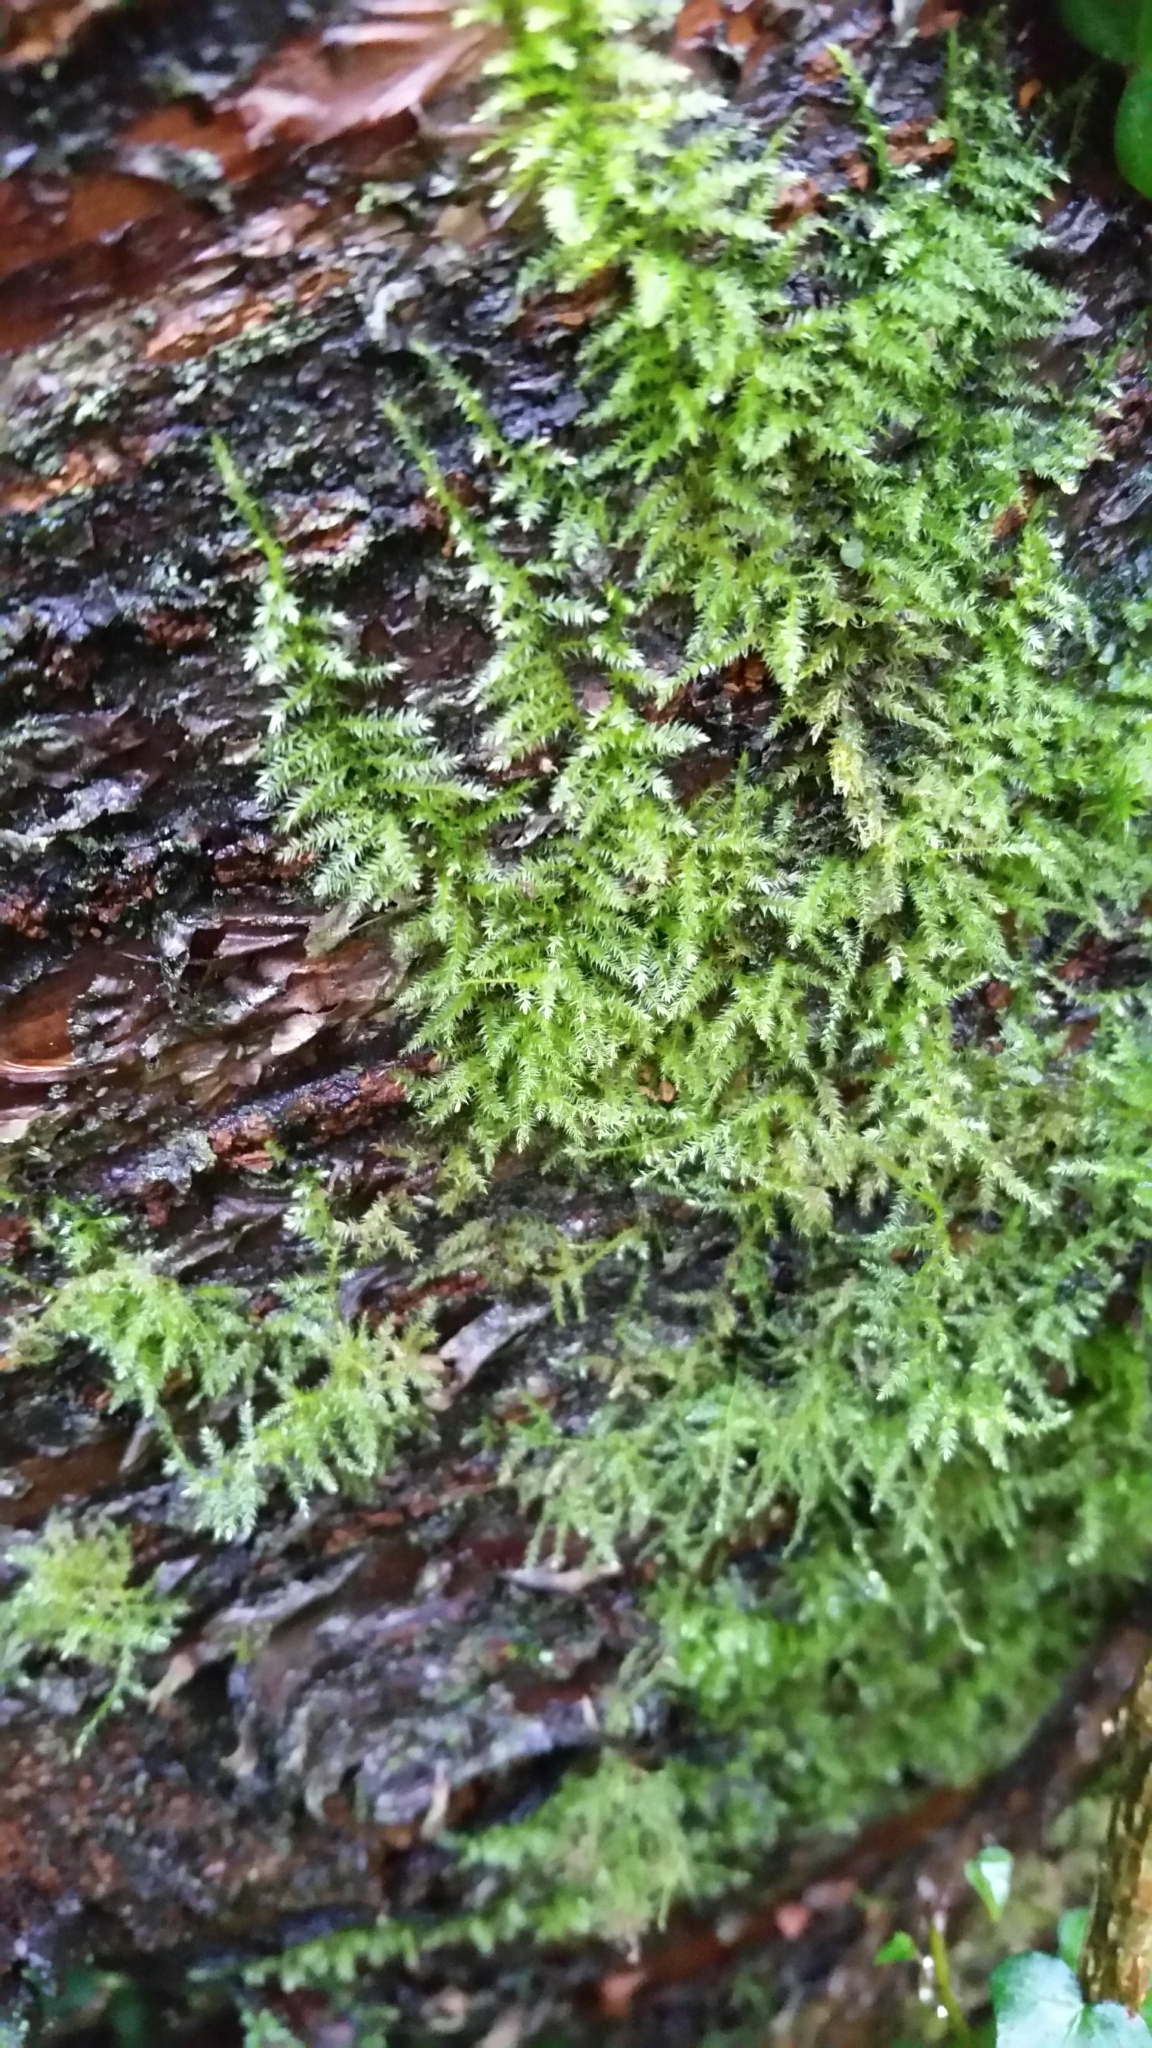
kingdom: Plantae
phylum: Bryophyta
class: Bryopsida
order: Hypnales
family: Brachytheciaceae
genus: Kindbergia
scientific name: Kindbergia praelonga
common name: Slender beaked moss
